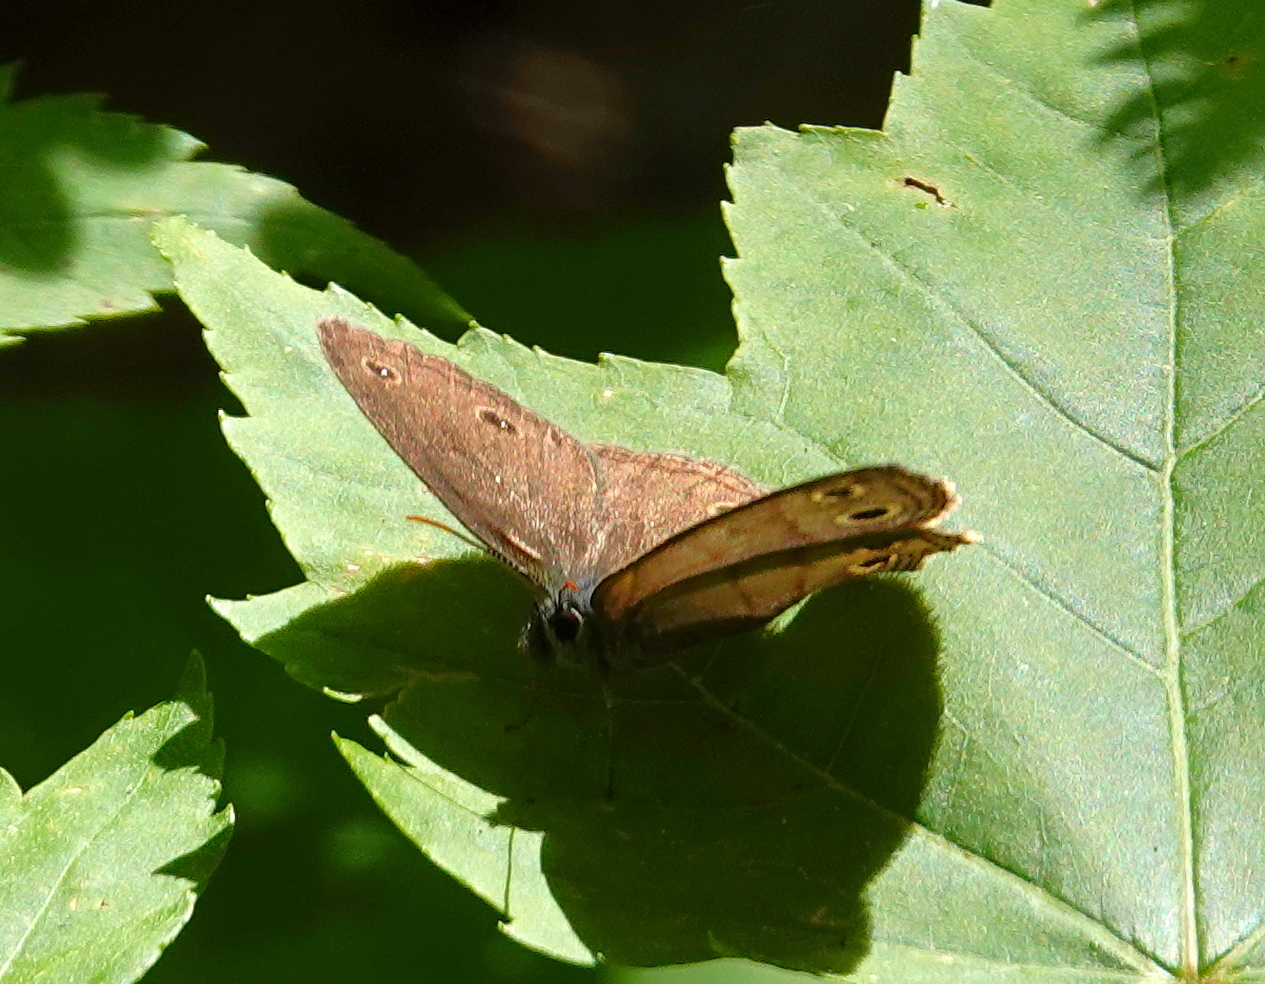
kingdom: Animalia
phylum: Arthropoda
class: Insecta
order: Lepidoptera
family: Nymphalidae
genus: Euptychia
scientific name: Euptychia cymela
